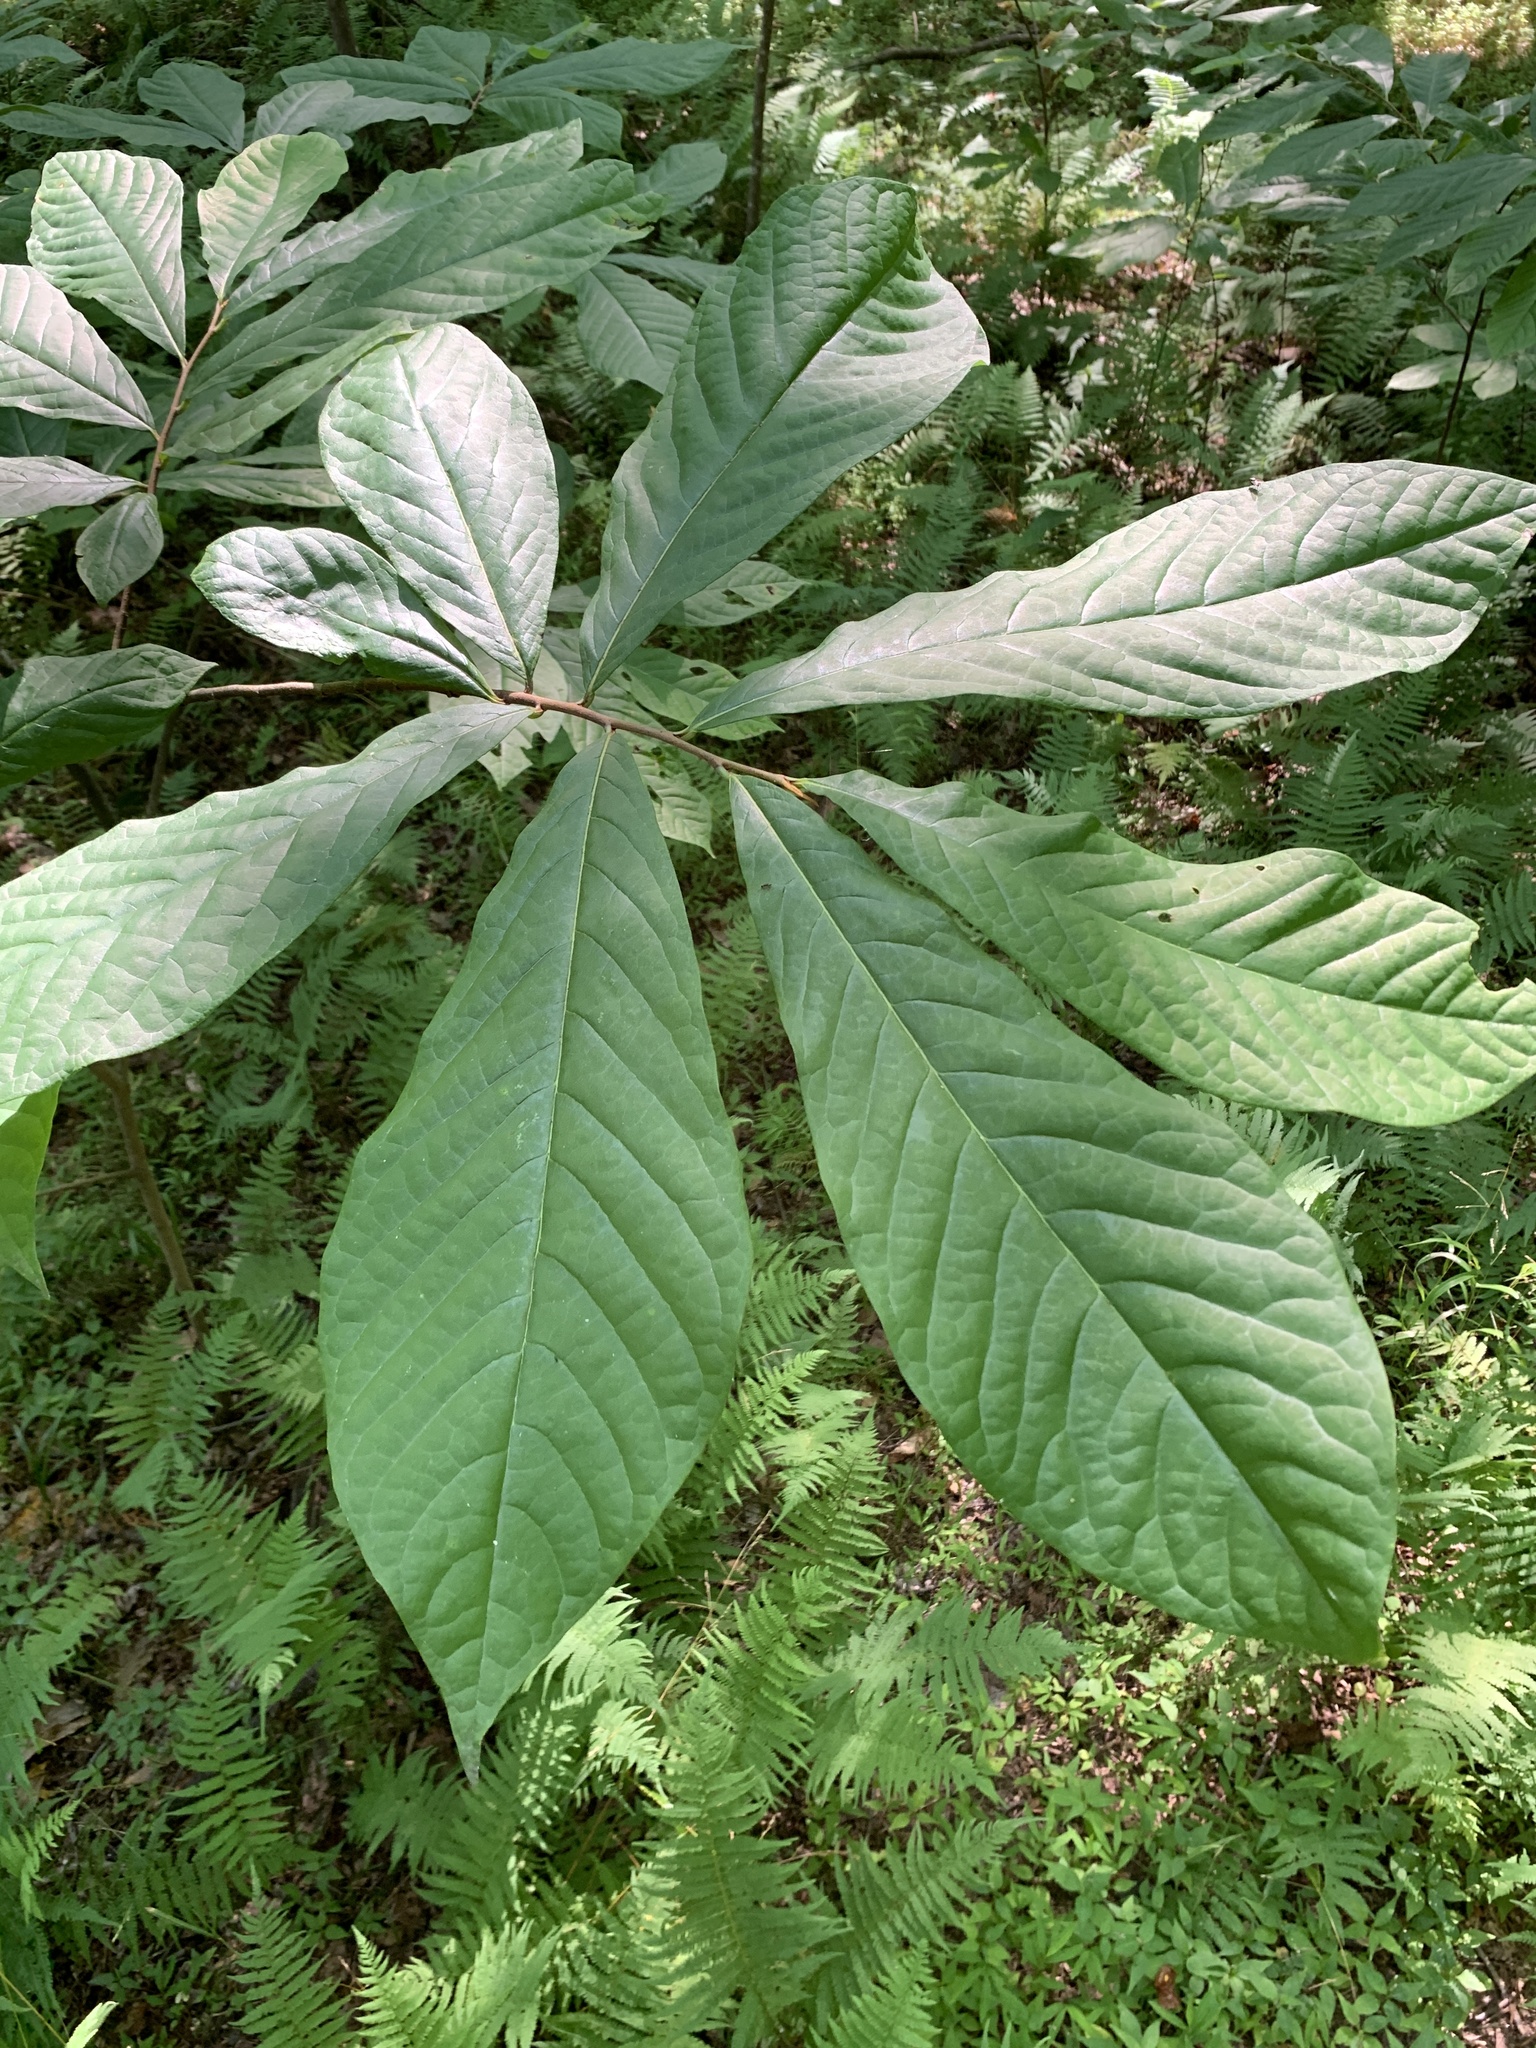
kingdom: Plantae
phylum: Tracheophyta
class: Magnoliopsida
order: Magnoliales
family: Annonaceae
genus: Asimina
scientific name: Asimina triloba
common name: Dog-banana
